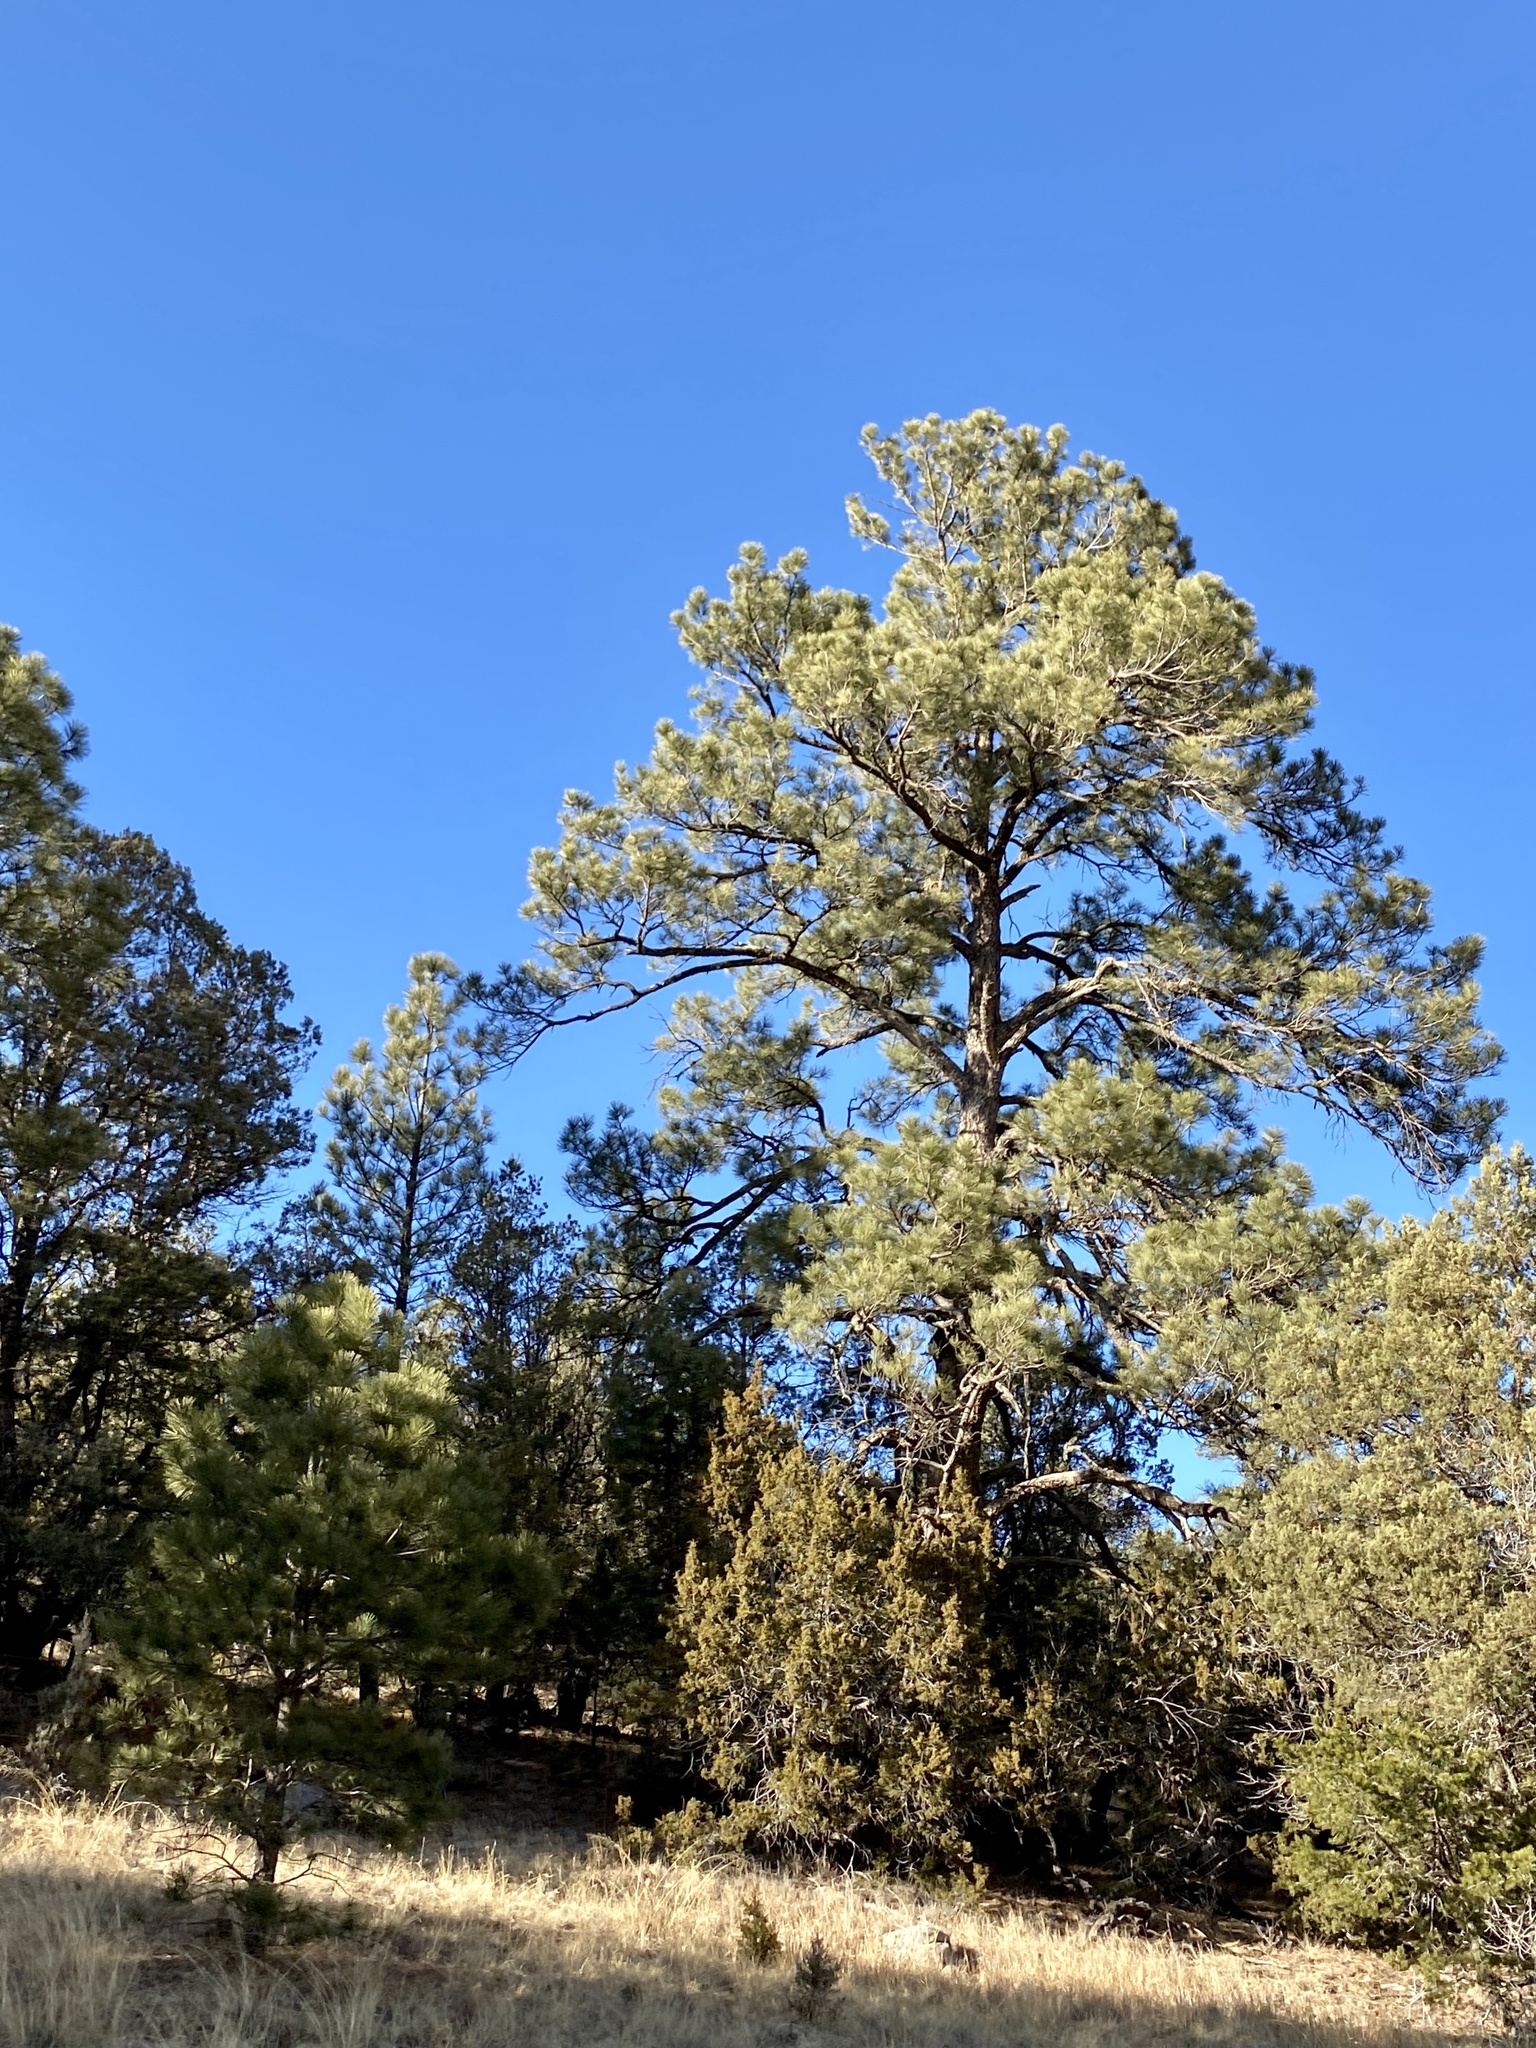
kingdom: Plantae
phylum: Tracheophyta
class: Pinopsida
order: Pinales
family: Pinaceae
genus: Pinus
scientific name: Pinus ponderosa
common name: Western yellow-pine
